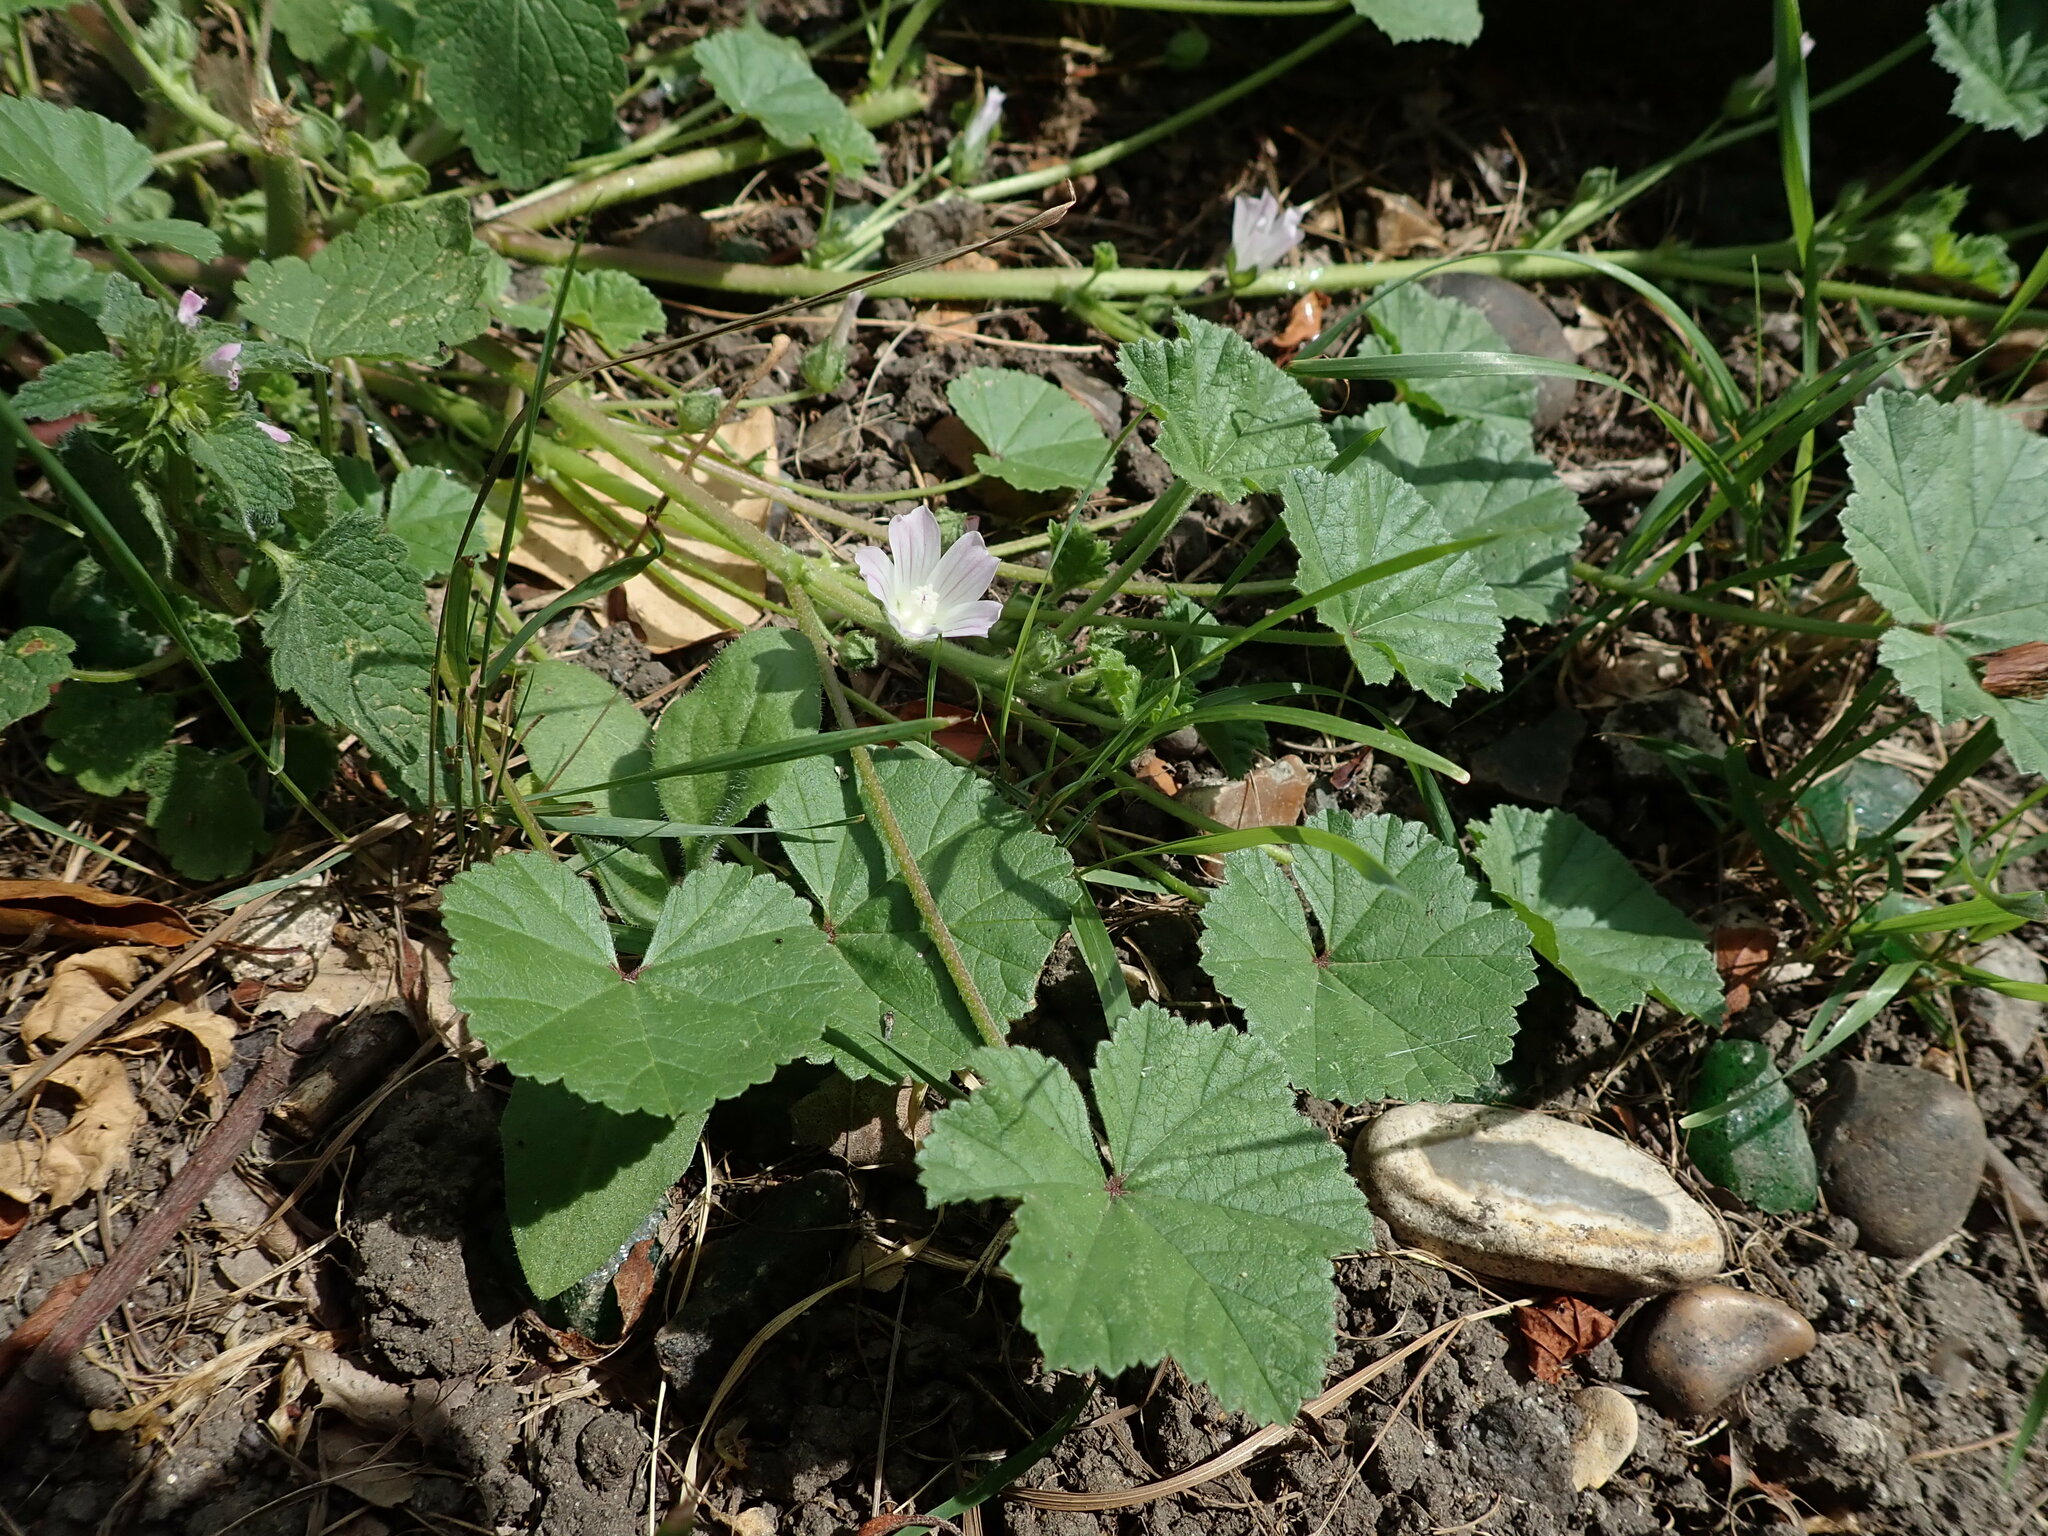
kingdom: Plantae
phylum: Tracheophyta
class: Magnoliopsida
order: Malvales
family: Malvaceae
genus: Malva
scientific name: Malva neglecta
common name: Common mallow
